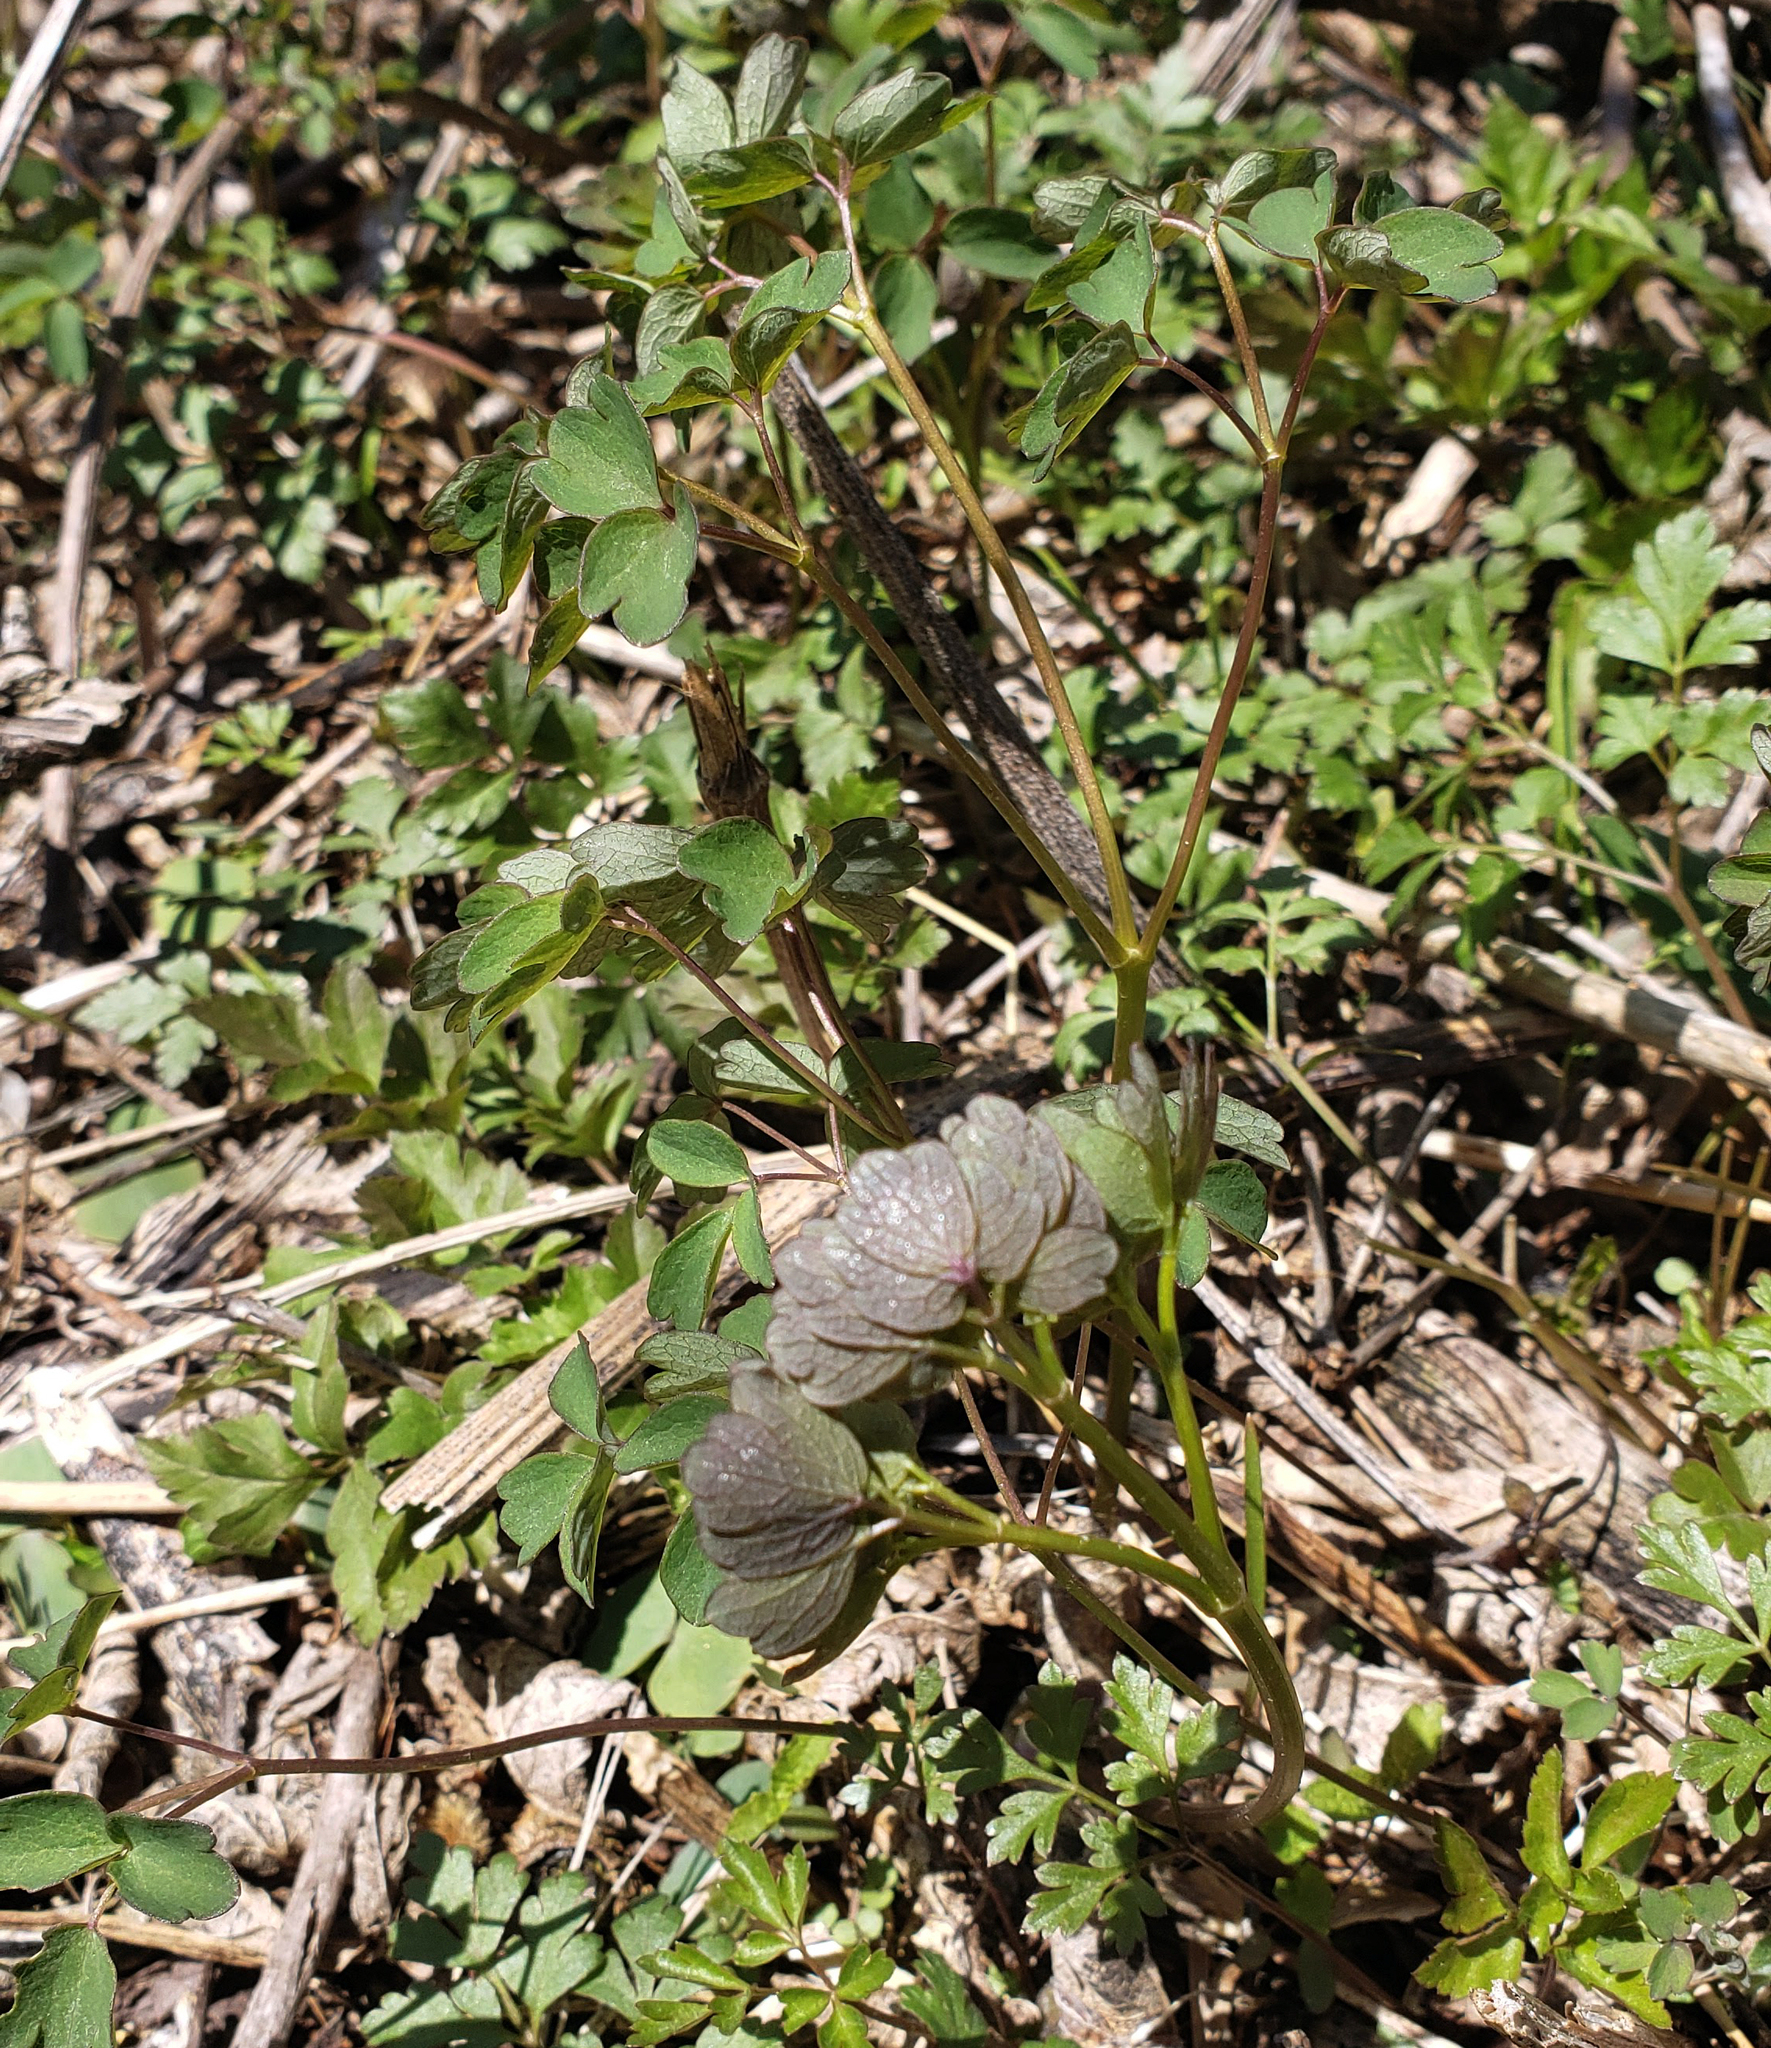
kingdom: Plantae
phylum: Tracheophyta
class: Magnoliopsida
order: Ranunculales
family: Ranunculaceae
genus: Thalictrum
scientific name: Thalictrum dioicum
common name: Early meadow-rue
